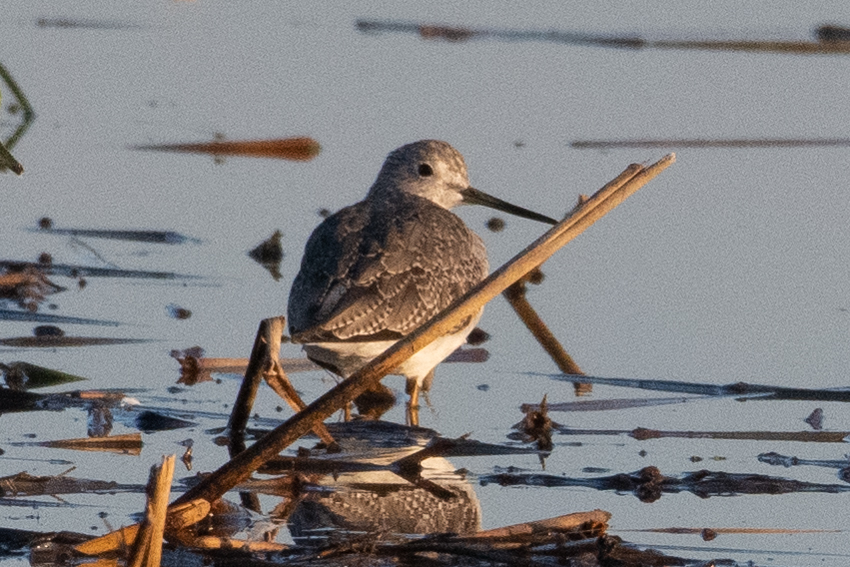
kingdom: Animalia
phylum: Chordata
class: Aves
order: Charadriiformes
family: Scolopacidae
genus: Tringa
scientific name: Tringa melanoleuca
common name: Greater yellowlegs
